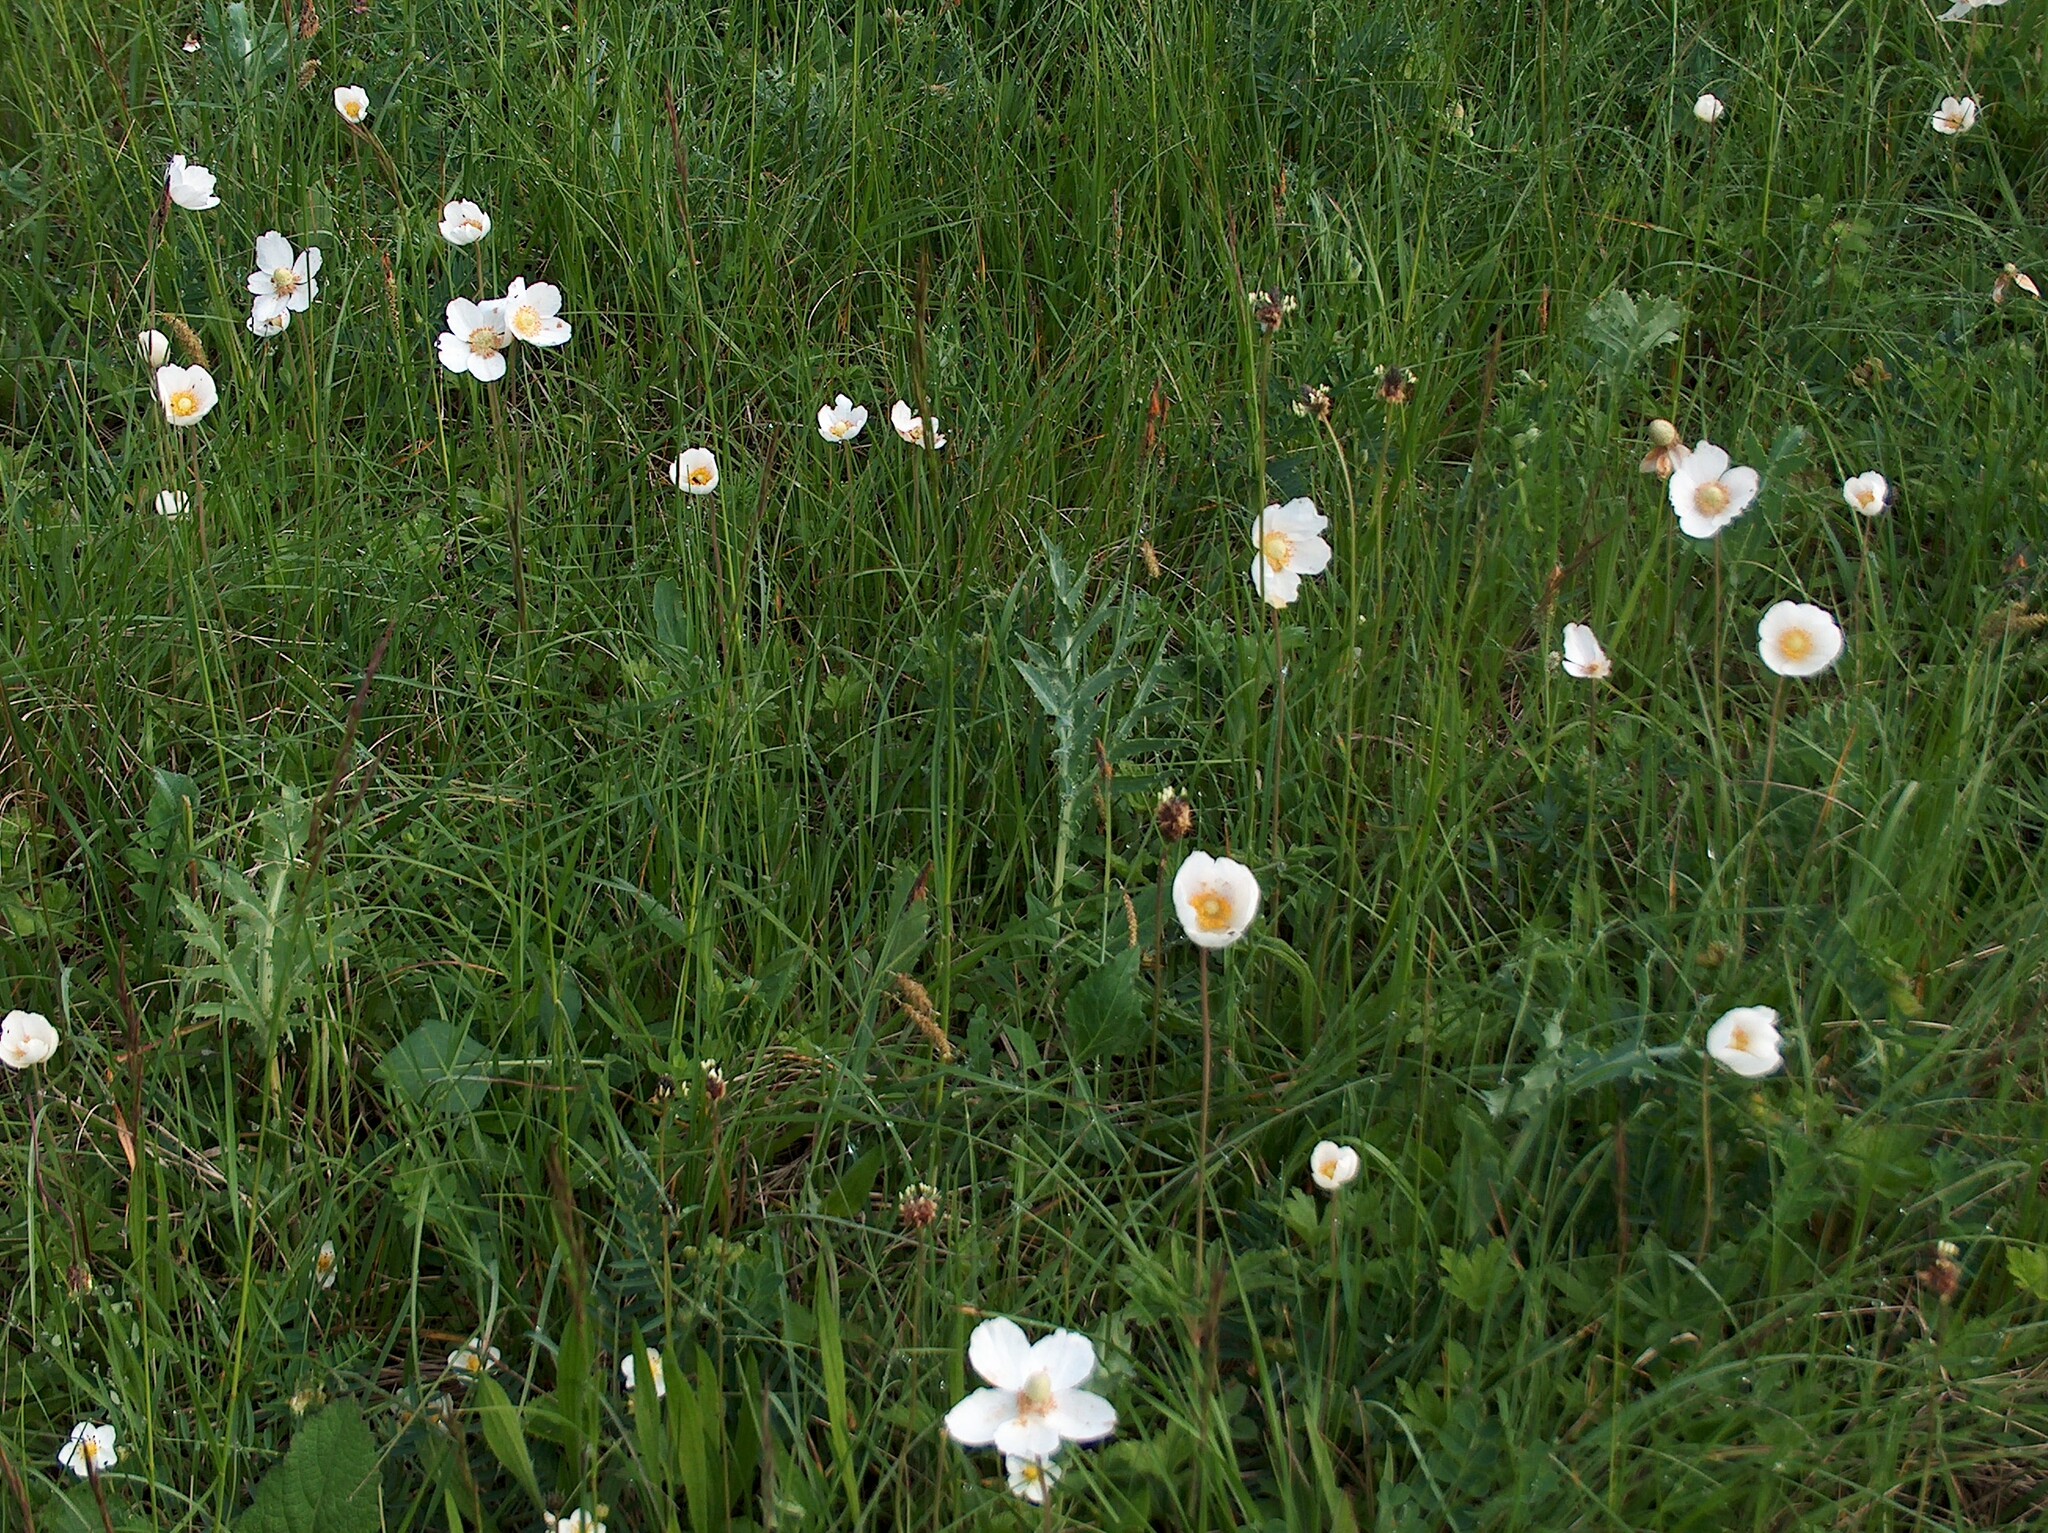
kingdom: Plantae
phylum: Tracheophyta
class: Magnoliopsida
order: Ranunculales
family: Ranunculaceae
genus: Anemone
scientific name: Anemone sylvestris
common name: Snowdrop anemone
